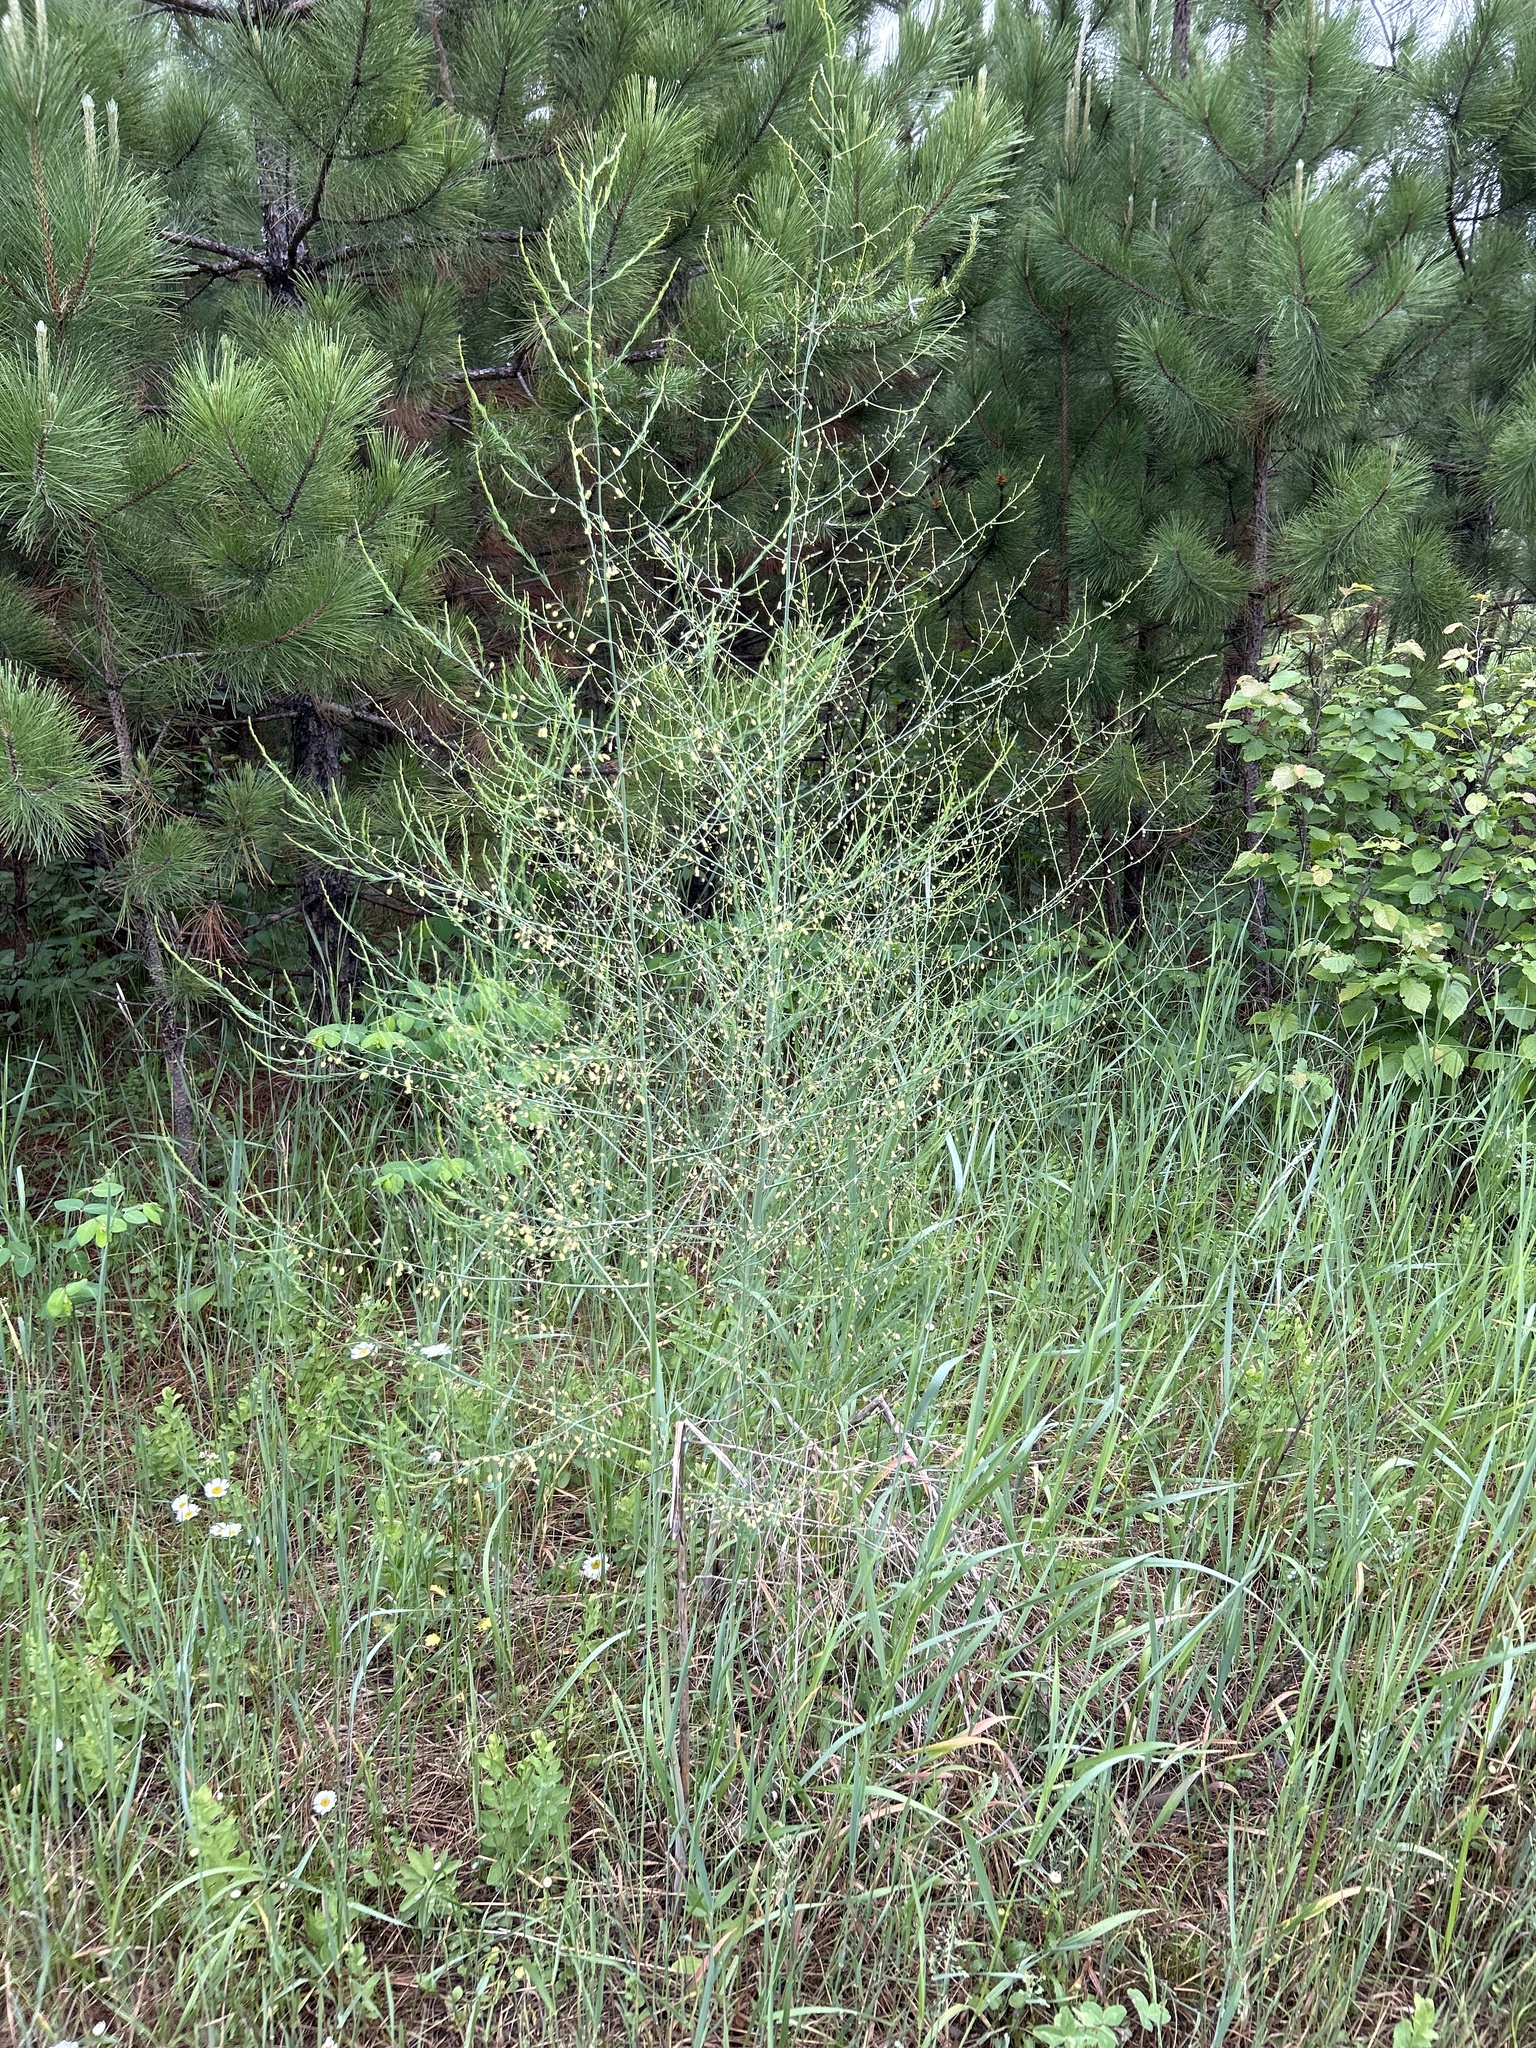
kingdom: Plantae
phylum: Tracheophyta
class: Liliopsida
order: Asparagales
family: Asparagaceae
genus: Asparagus
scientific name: Asparagus officinalis
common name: Garden asparagus
